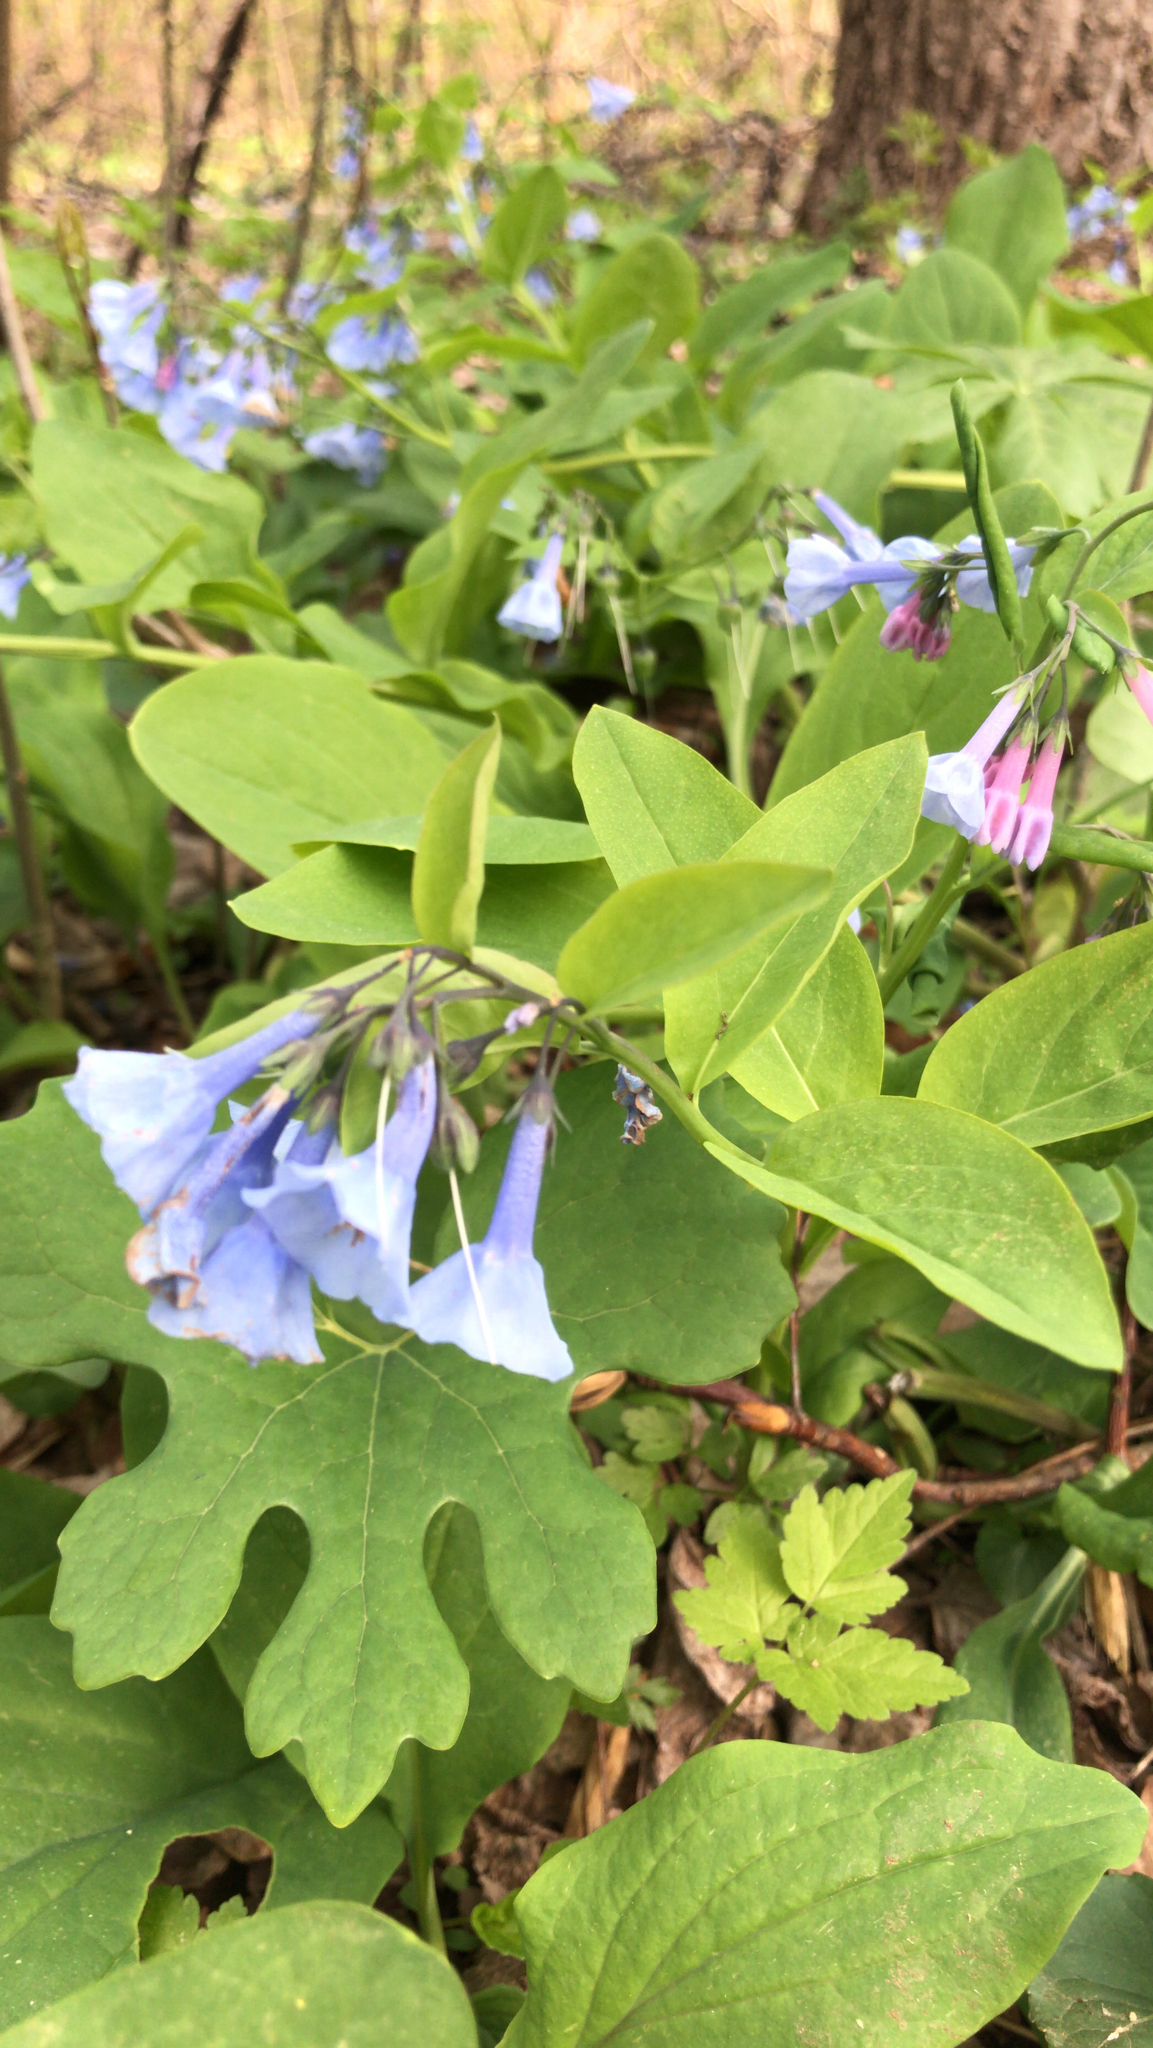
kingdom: Plantae
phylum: Tracheophyta
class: Magnoliopsida
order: Boraginales
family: Boraginaceae
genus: Mertensia
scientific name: Mertensia virginica
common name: Virginia bluebells
